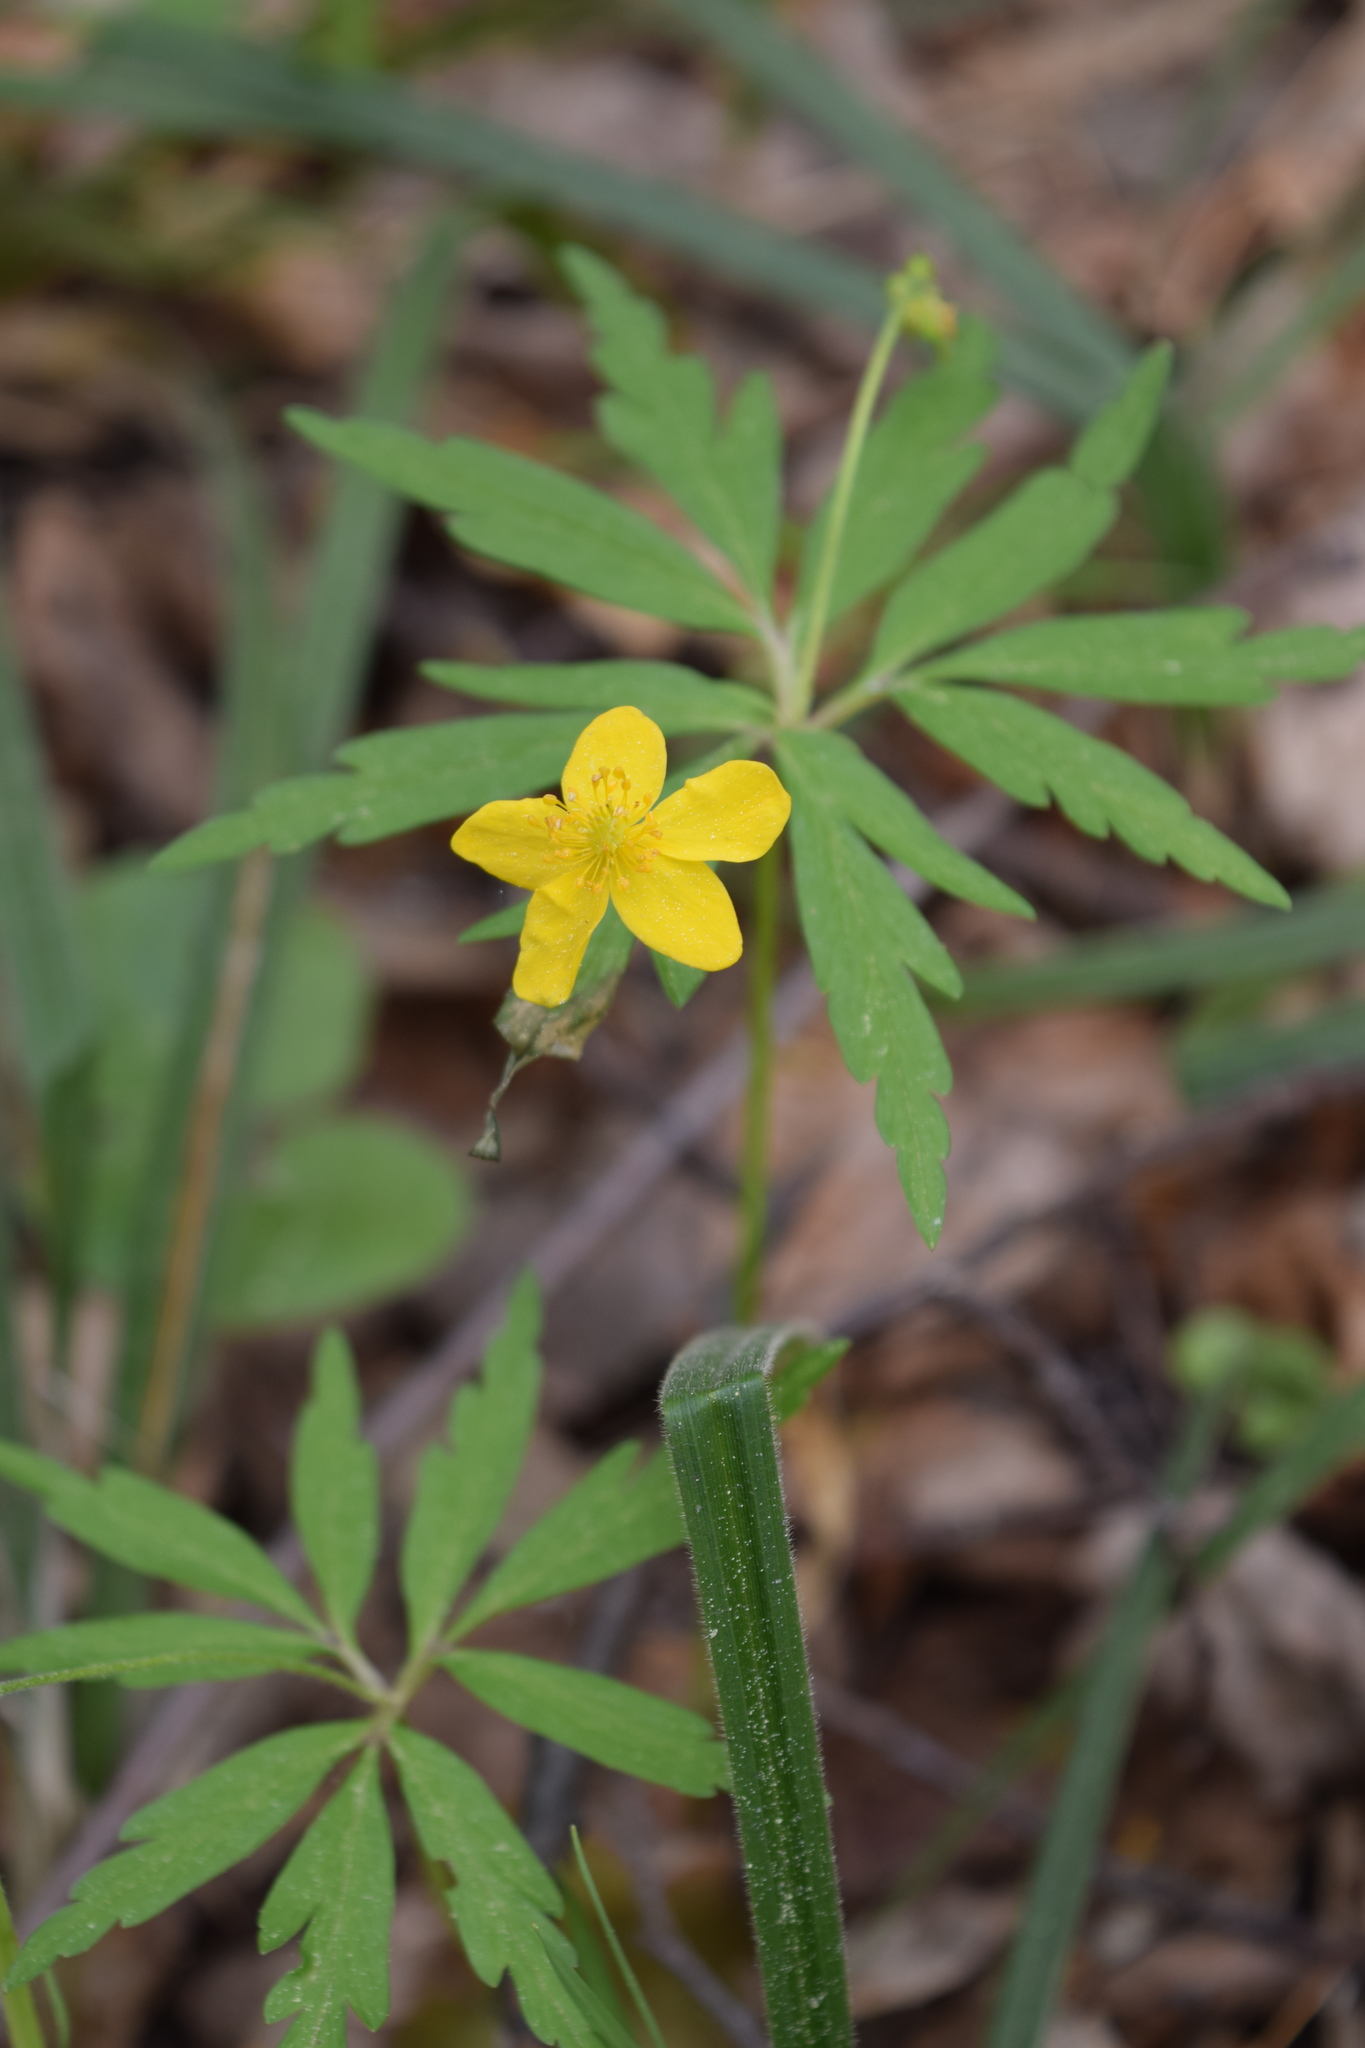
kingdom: Plantae
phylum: Tracheophyta
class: Magnoliopsida
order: Ranunculales
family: Ranunculaceae
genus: Anemone
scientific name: Anemone ranunculoides
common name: Yellow anemone
